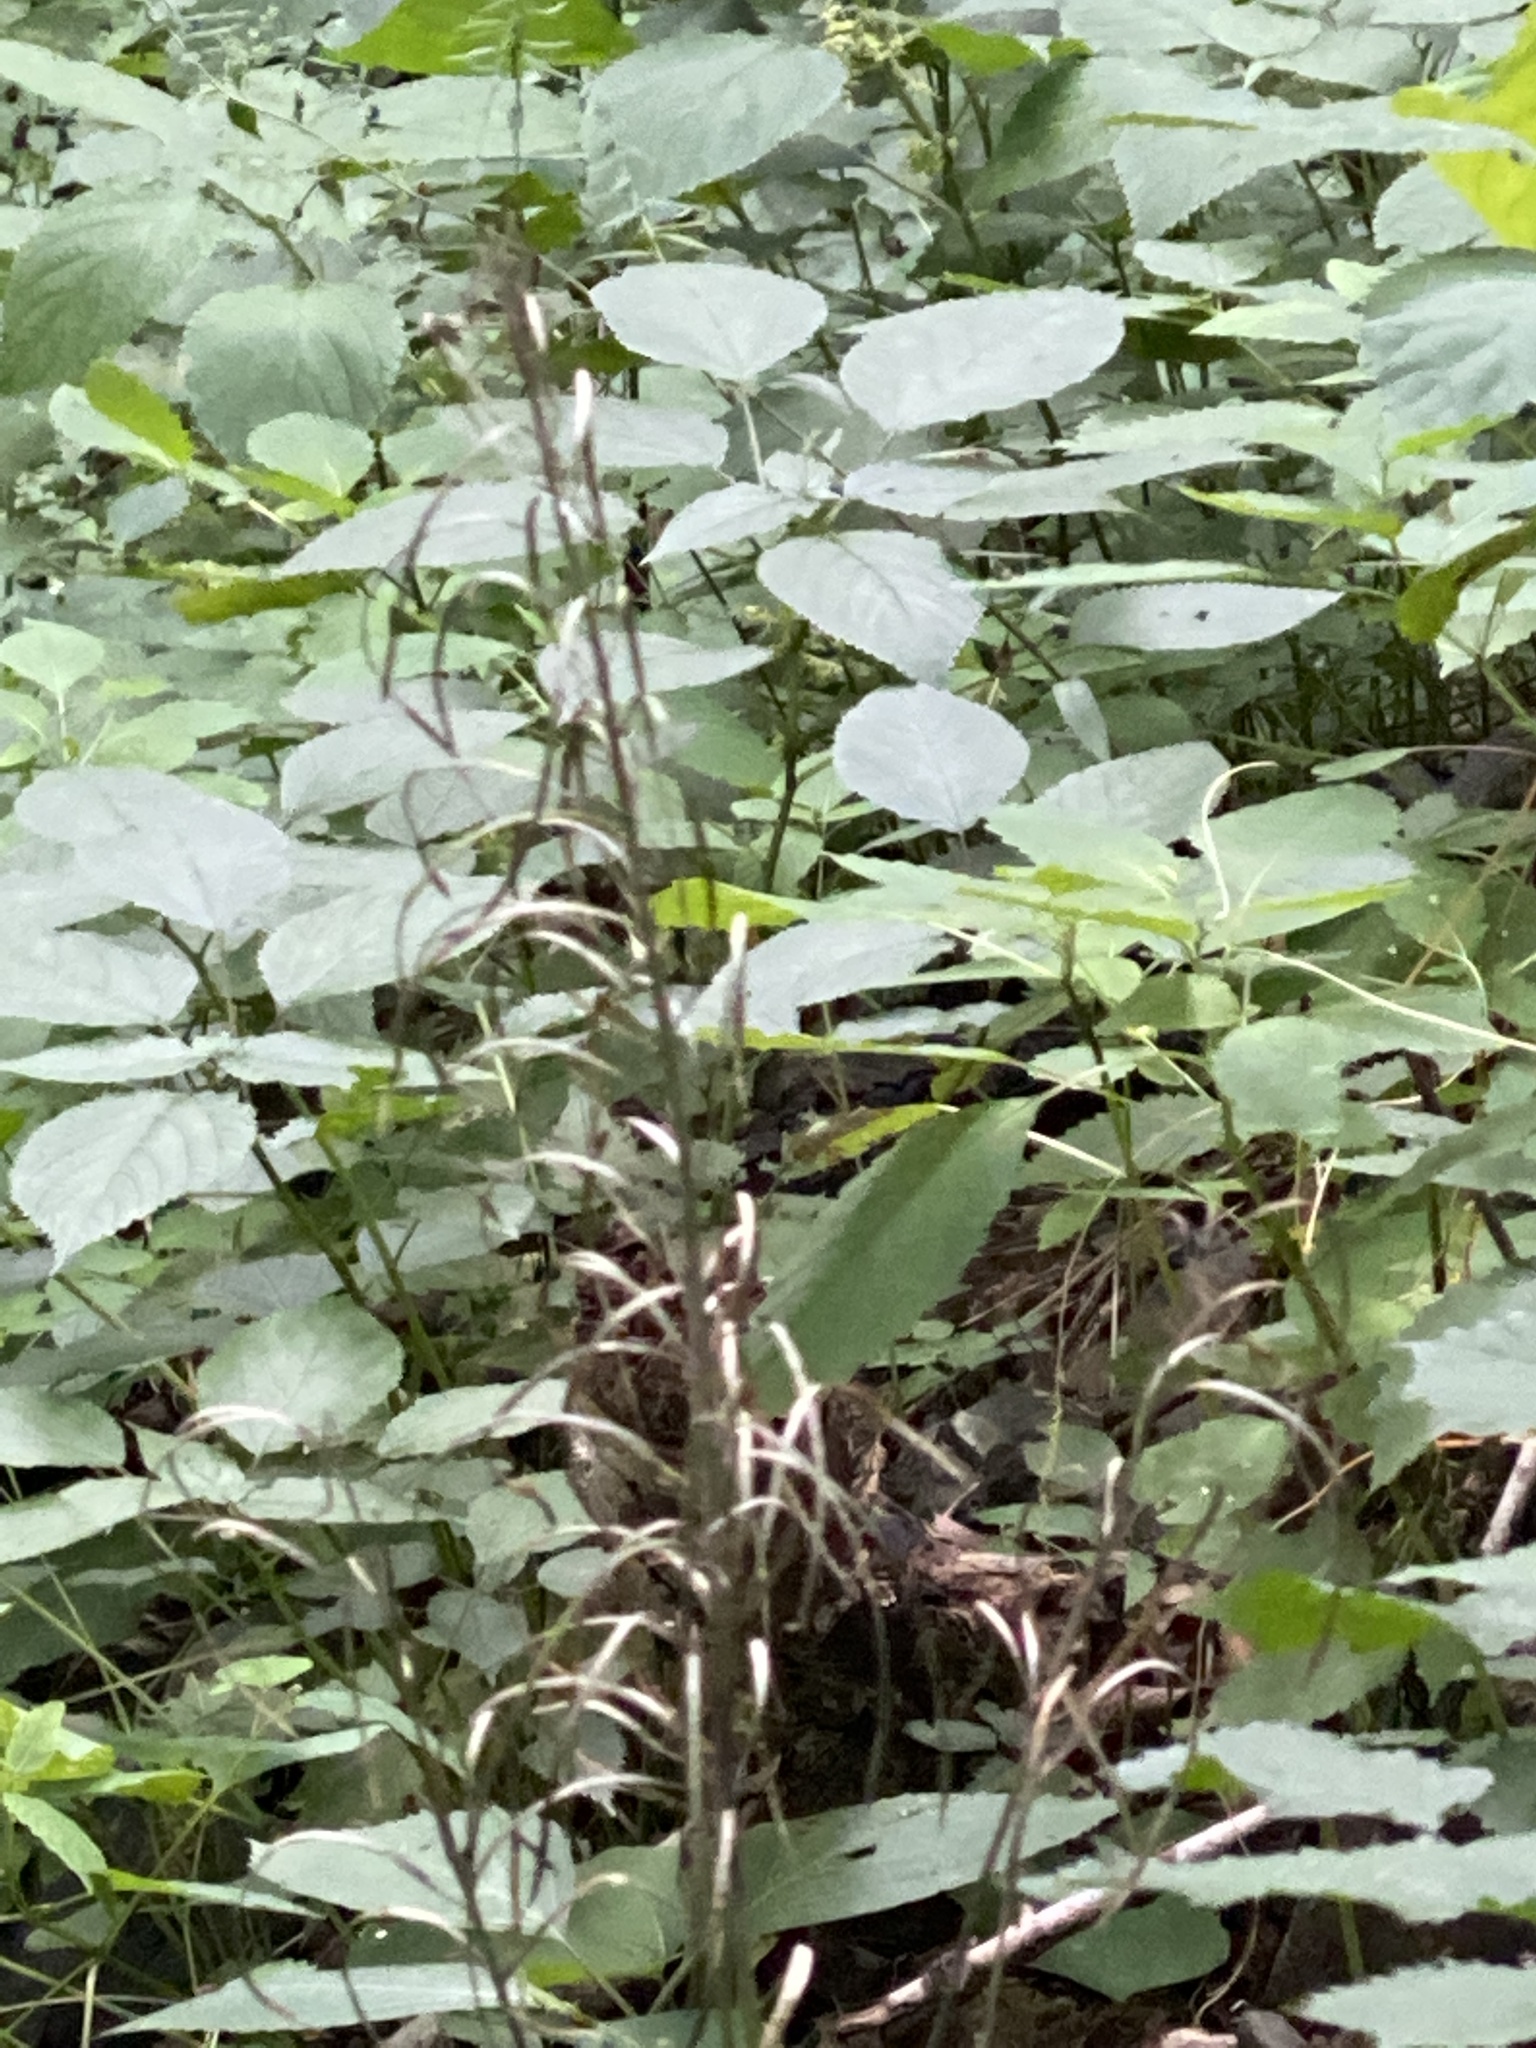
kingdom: Plantae
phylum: Tracheophyta
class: Magnoliopsida
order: Brassicales
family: Brassicaceae
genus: Borodinia
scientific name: Borodinia laevigata
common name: Smooth rockcress
